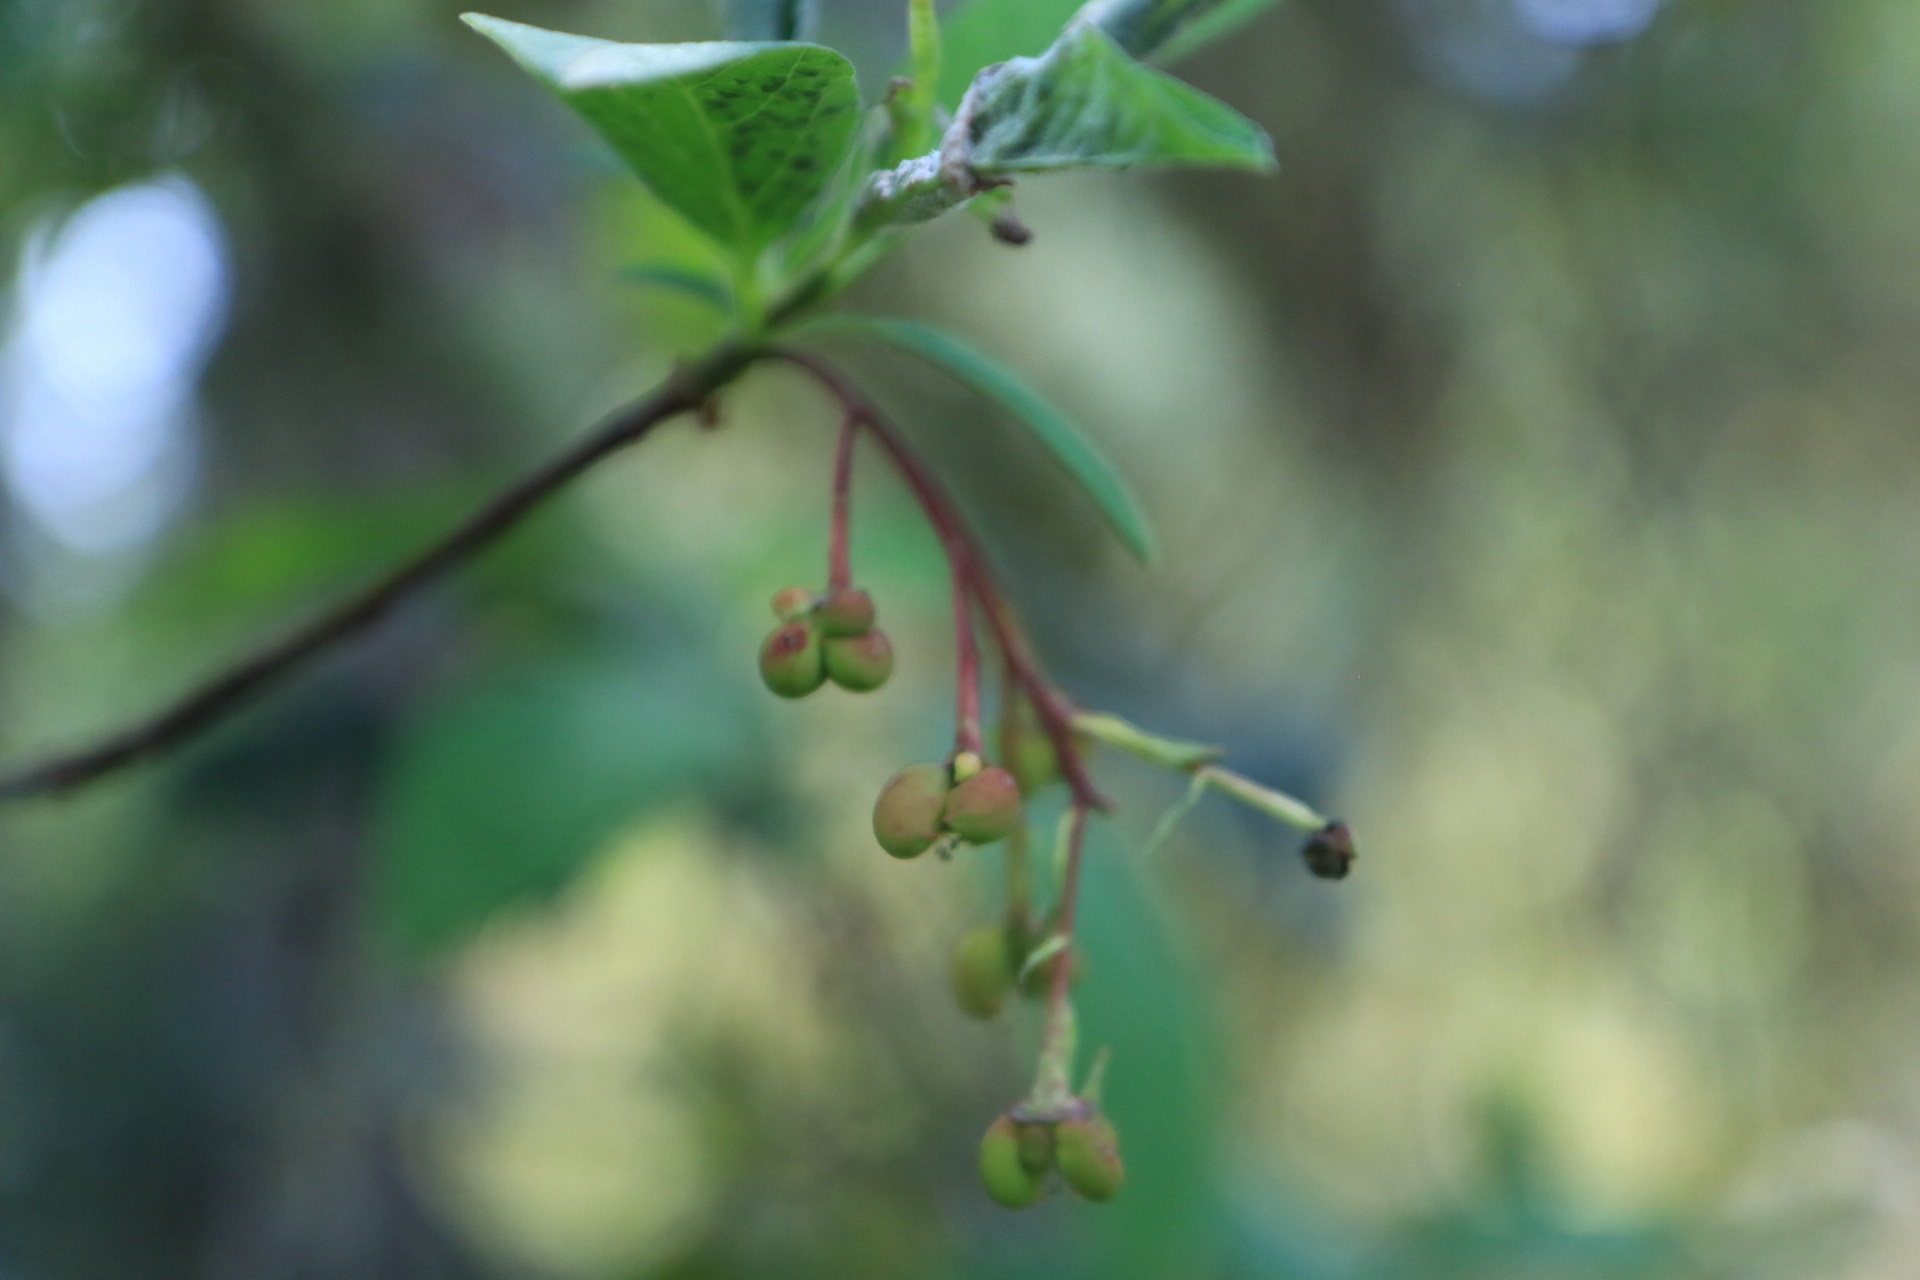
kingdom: Plantae
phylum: Tracheophyta
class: Magnoliopsida
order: Rosales
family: Rosaceae
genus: Oemleria
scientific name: Oemleria cerasiformis
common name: Osoberry
